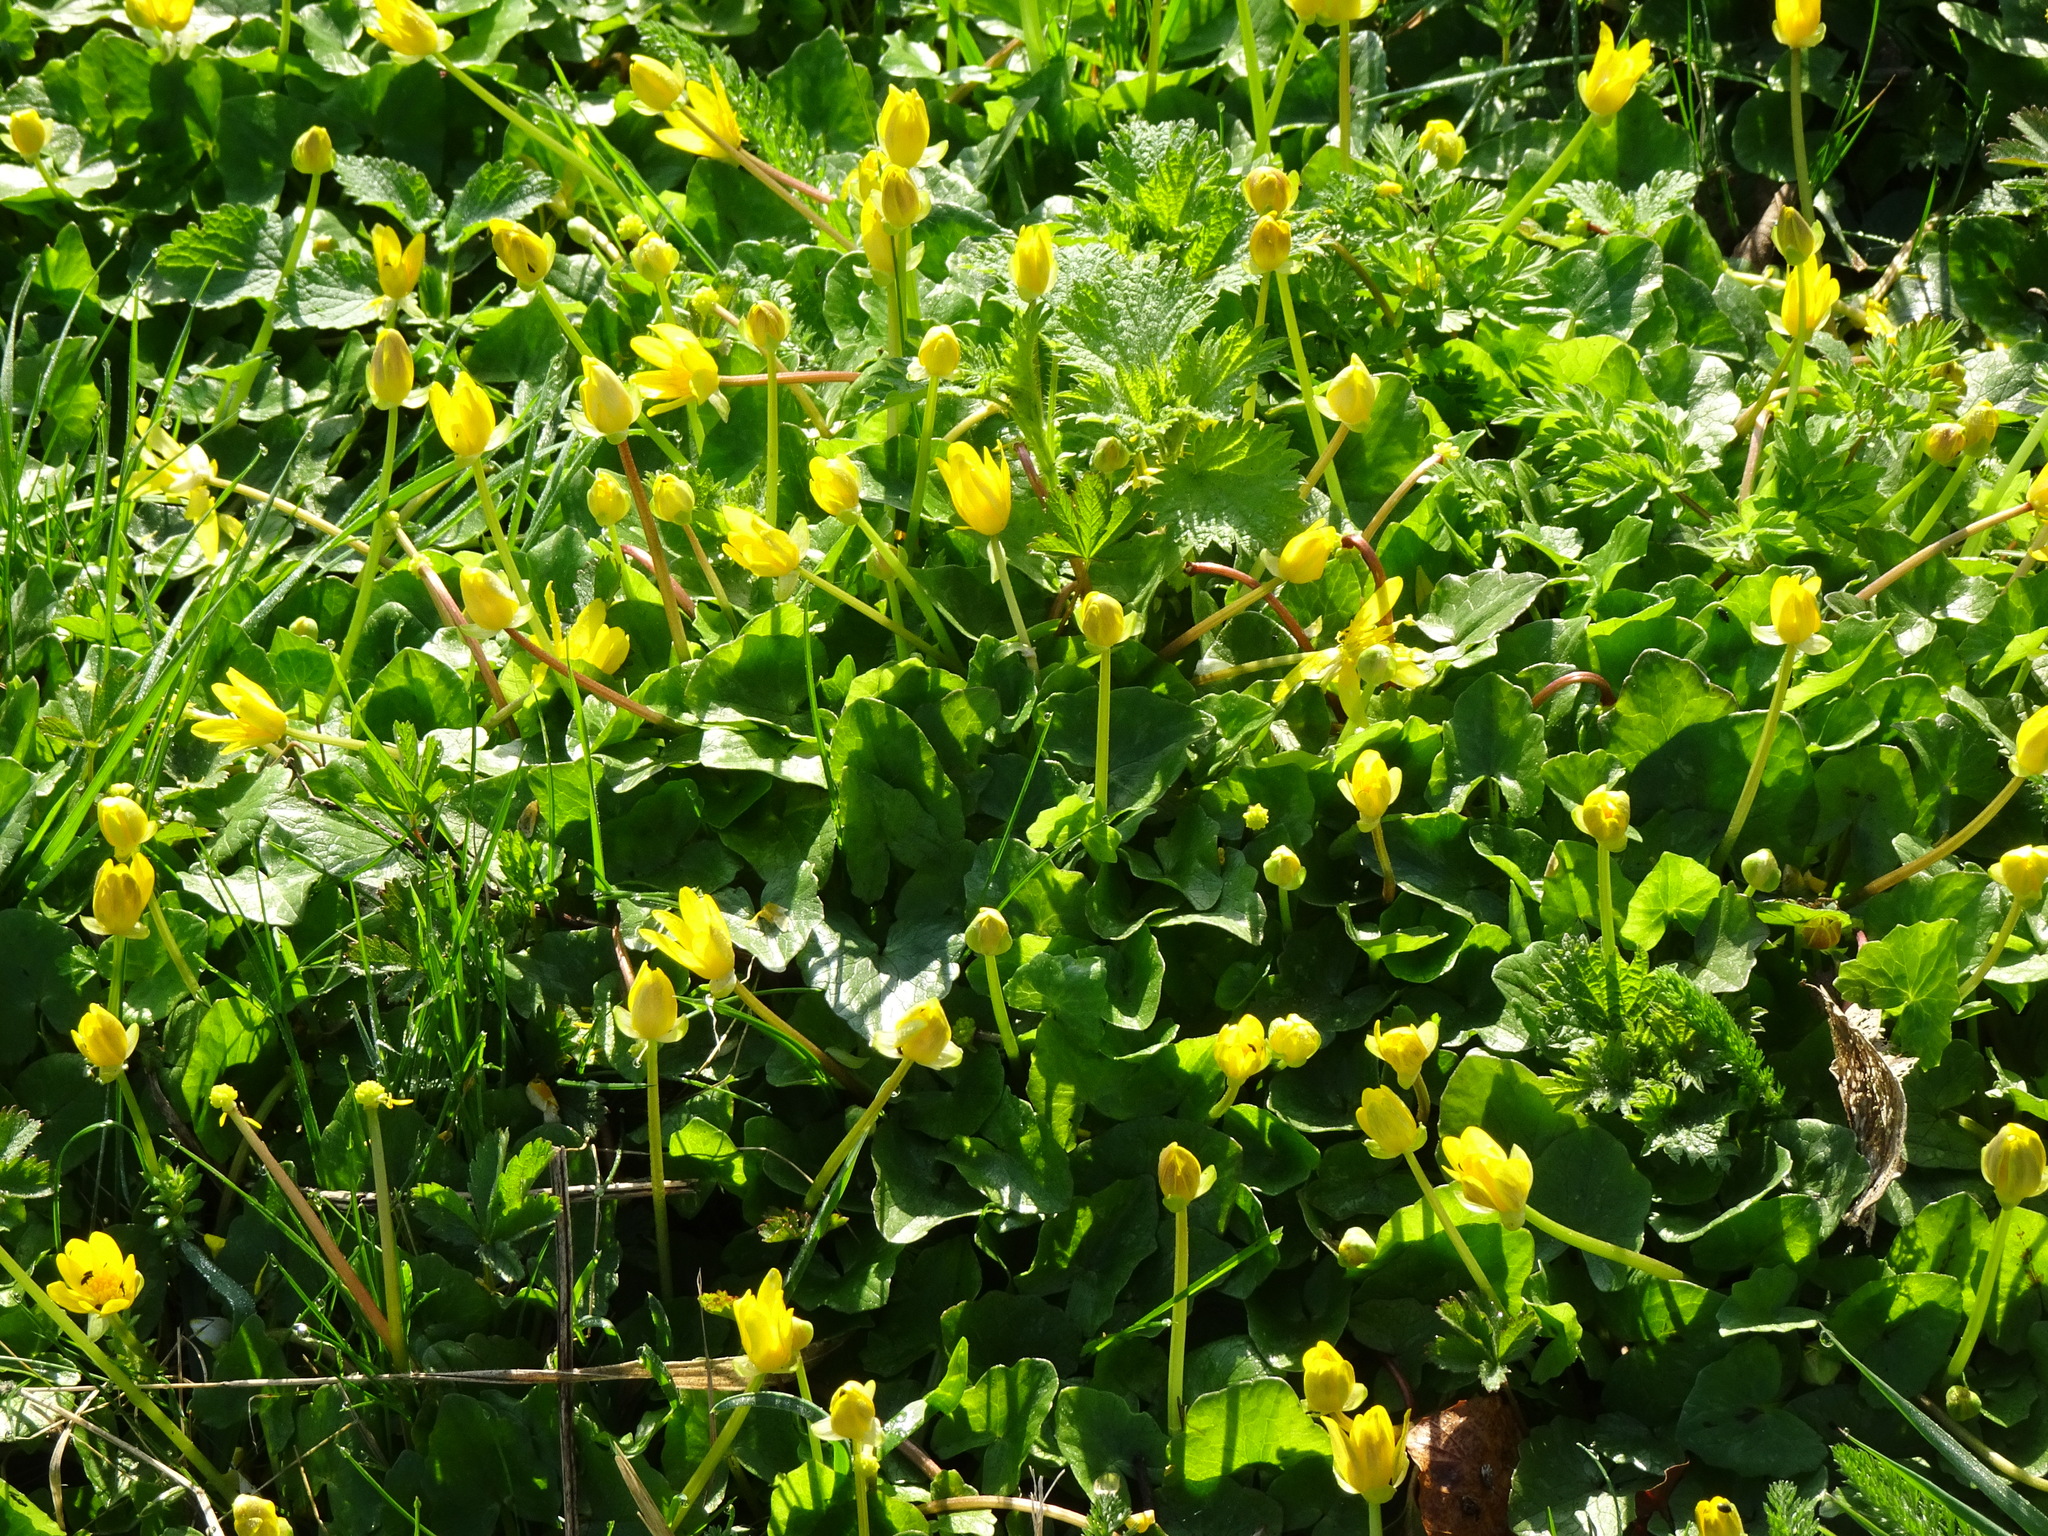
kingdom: Plantae
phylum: Tracheophyta
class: Magnoliopsida
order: Ranunculales
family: Ranunculaceae
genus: Ficaria
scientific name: Ficaria verna
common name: Lesser celandine
